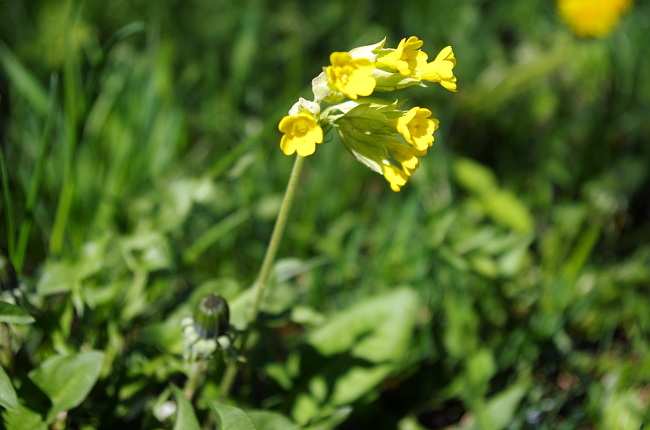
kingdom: Plantae
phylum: Tracheophyta
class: Magnoliopsida
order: Ericales
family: Primulaceae
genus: Primula
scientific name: Primula veris
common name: Cowslip
